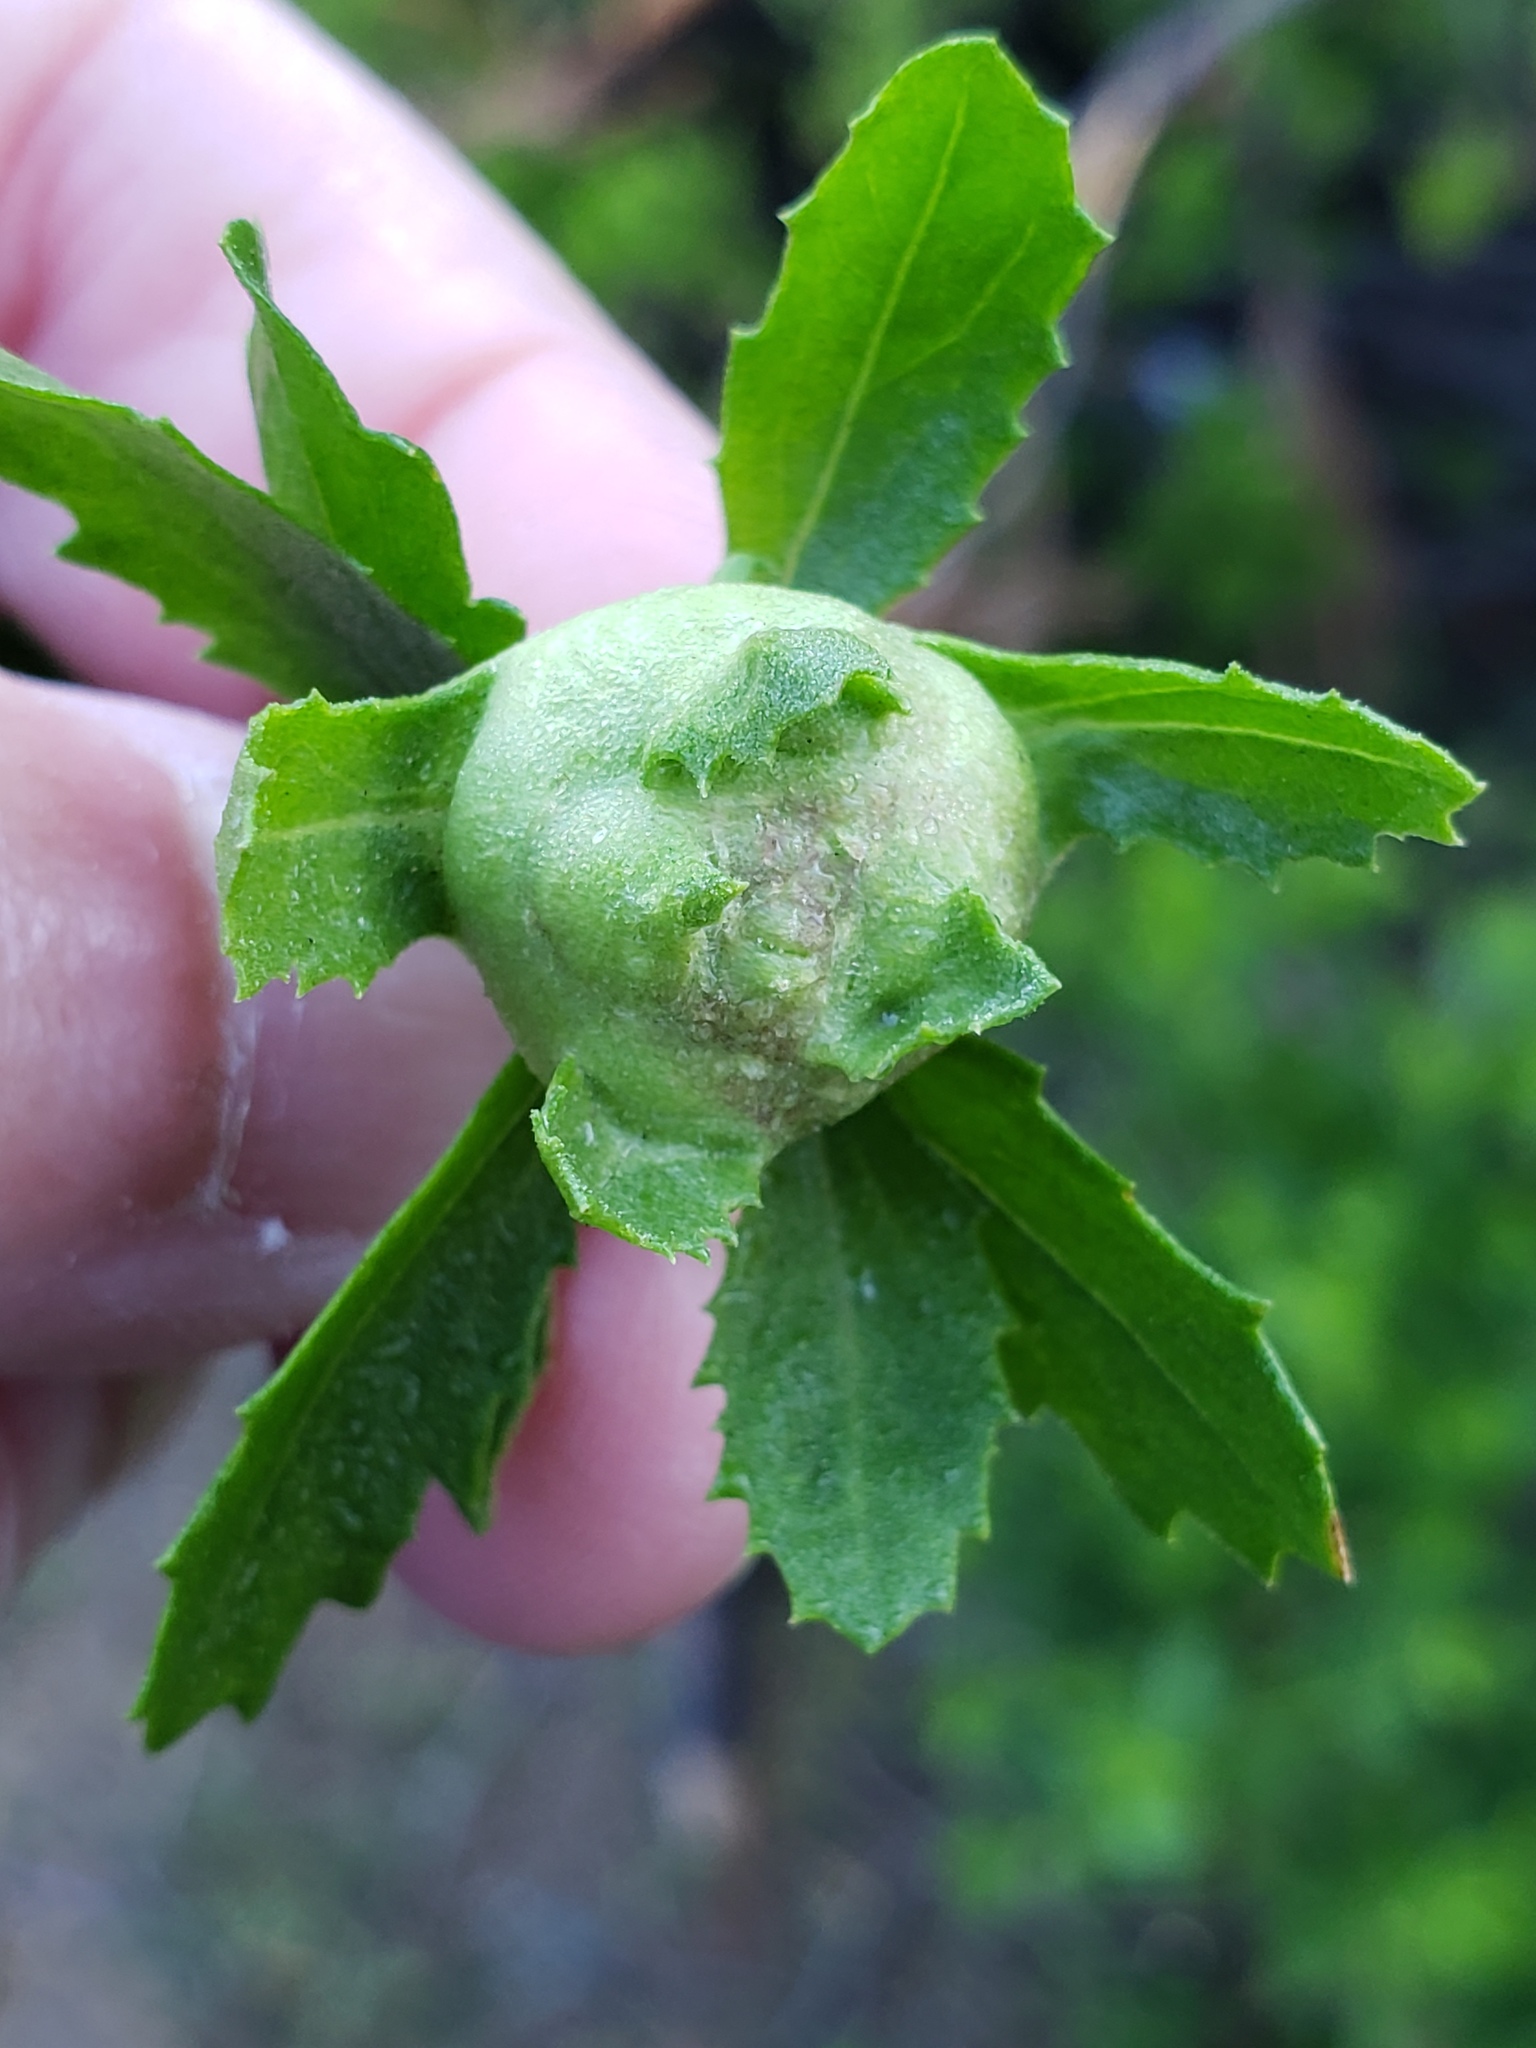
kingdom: Animalia
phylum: Arthropoda
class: Insecta
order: Diptera
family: Cecidomyiidae
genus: Rhopalomyia
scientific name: Rhopalomyia californica
